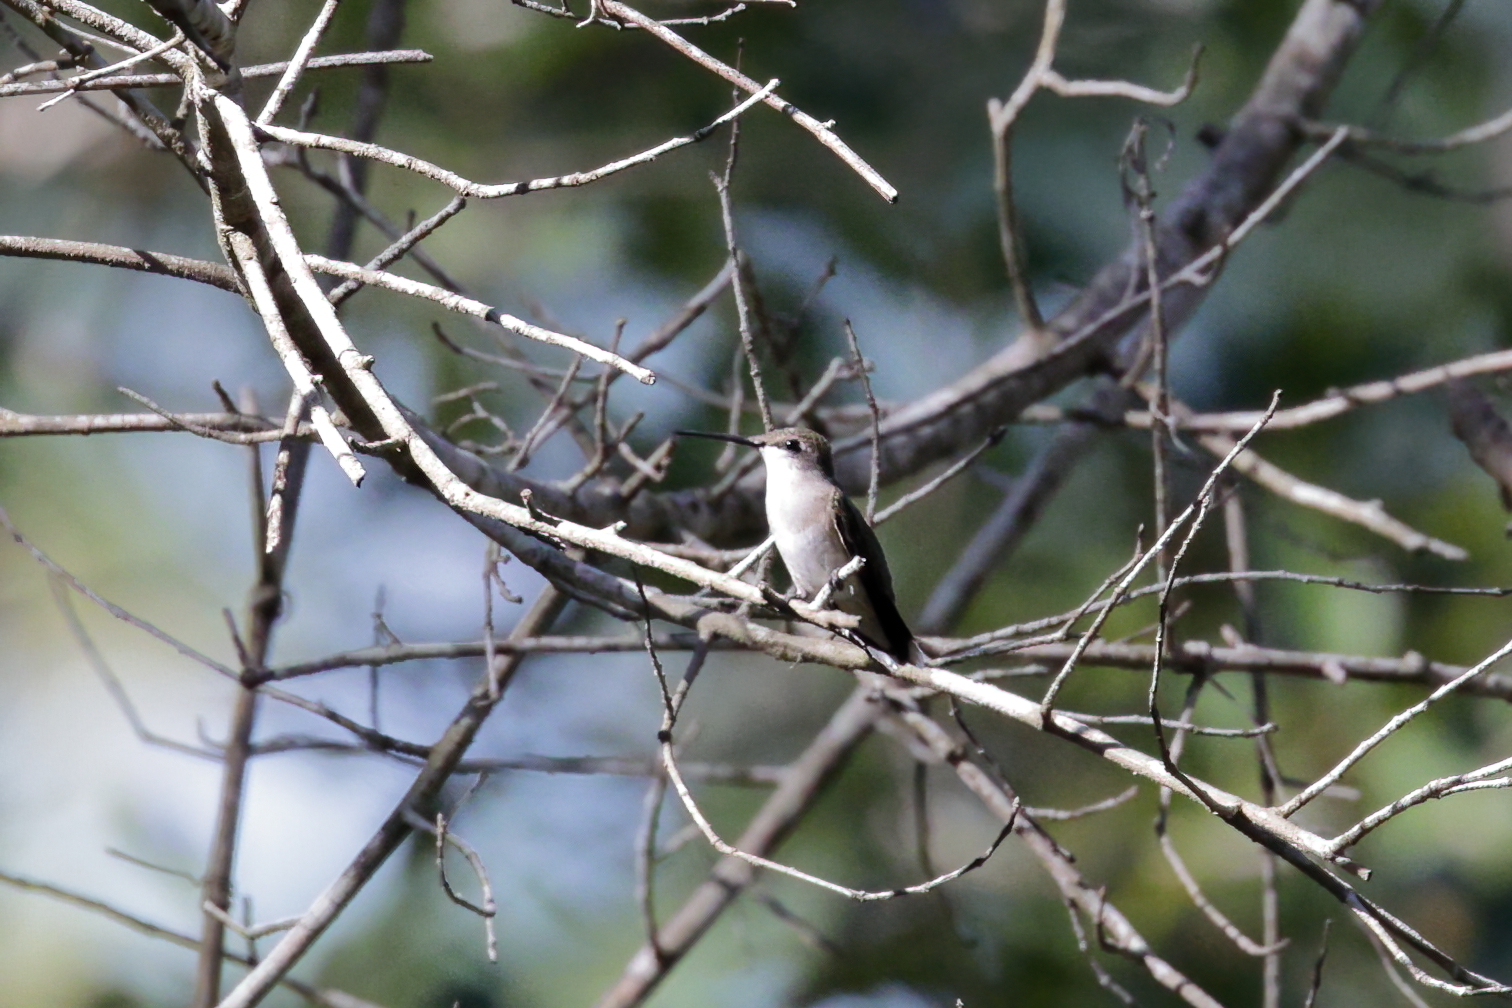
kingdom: Animalia
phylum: Chordata
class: Aves
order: Apodiformes
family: Trochilidae
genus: Archilochus
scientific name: Archilochus colubris
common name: Ruby-throated hummingbird
